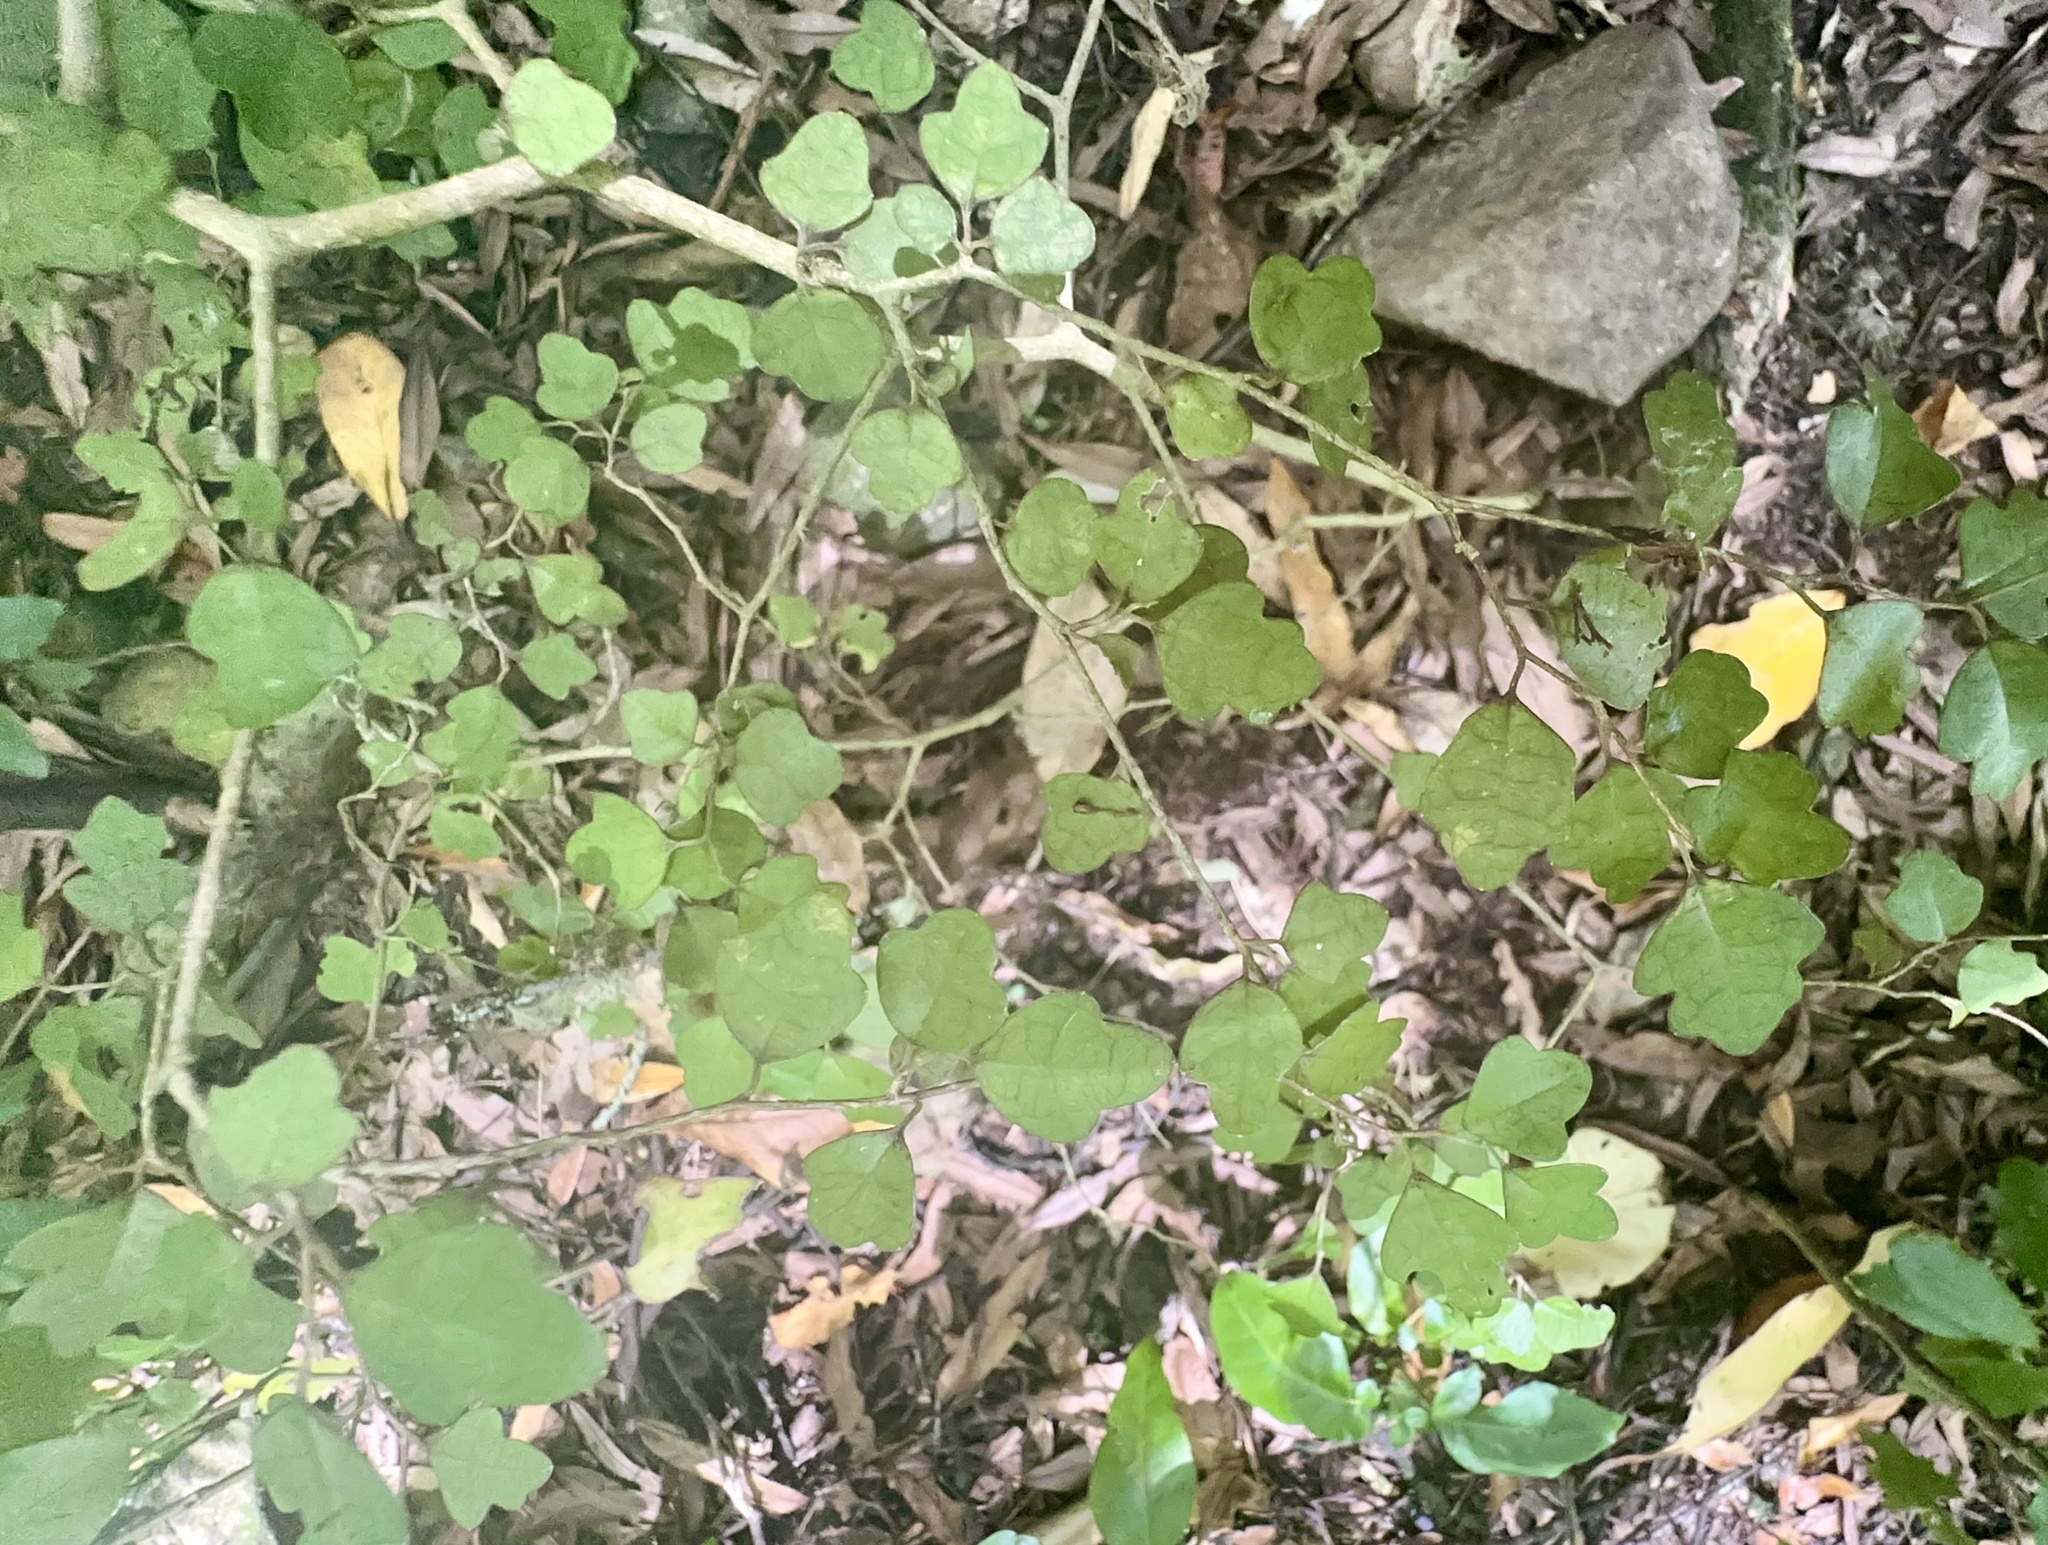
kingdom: Plantae
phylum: Tracheophyta
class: Magnoliopsida
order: Apiales
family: Pennantiaceae
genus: Pennantia
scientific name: Pennantia corymbosa
